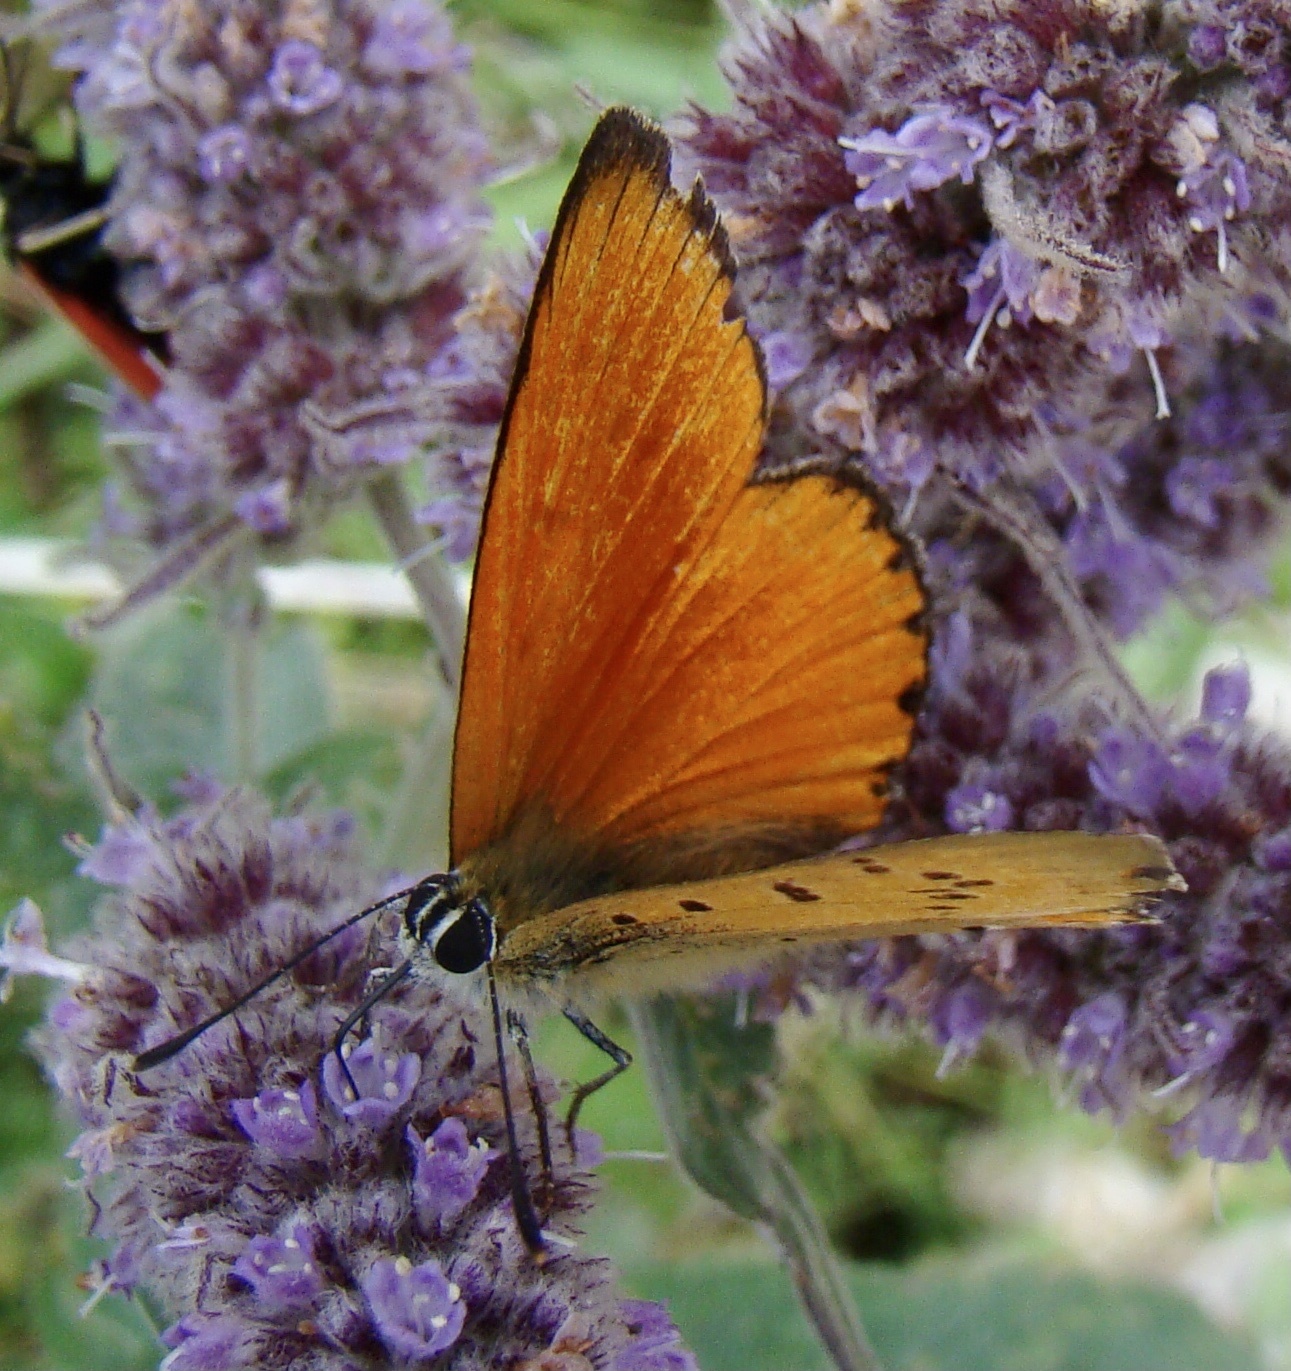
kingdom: Animalia
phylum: Arthropoda
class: Insecta
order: Lepidoptera
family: Lycaenidae
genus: Lycaena
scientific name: Lycaena virgaureae
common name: Scarce copper
